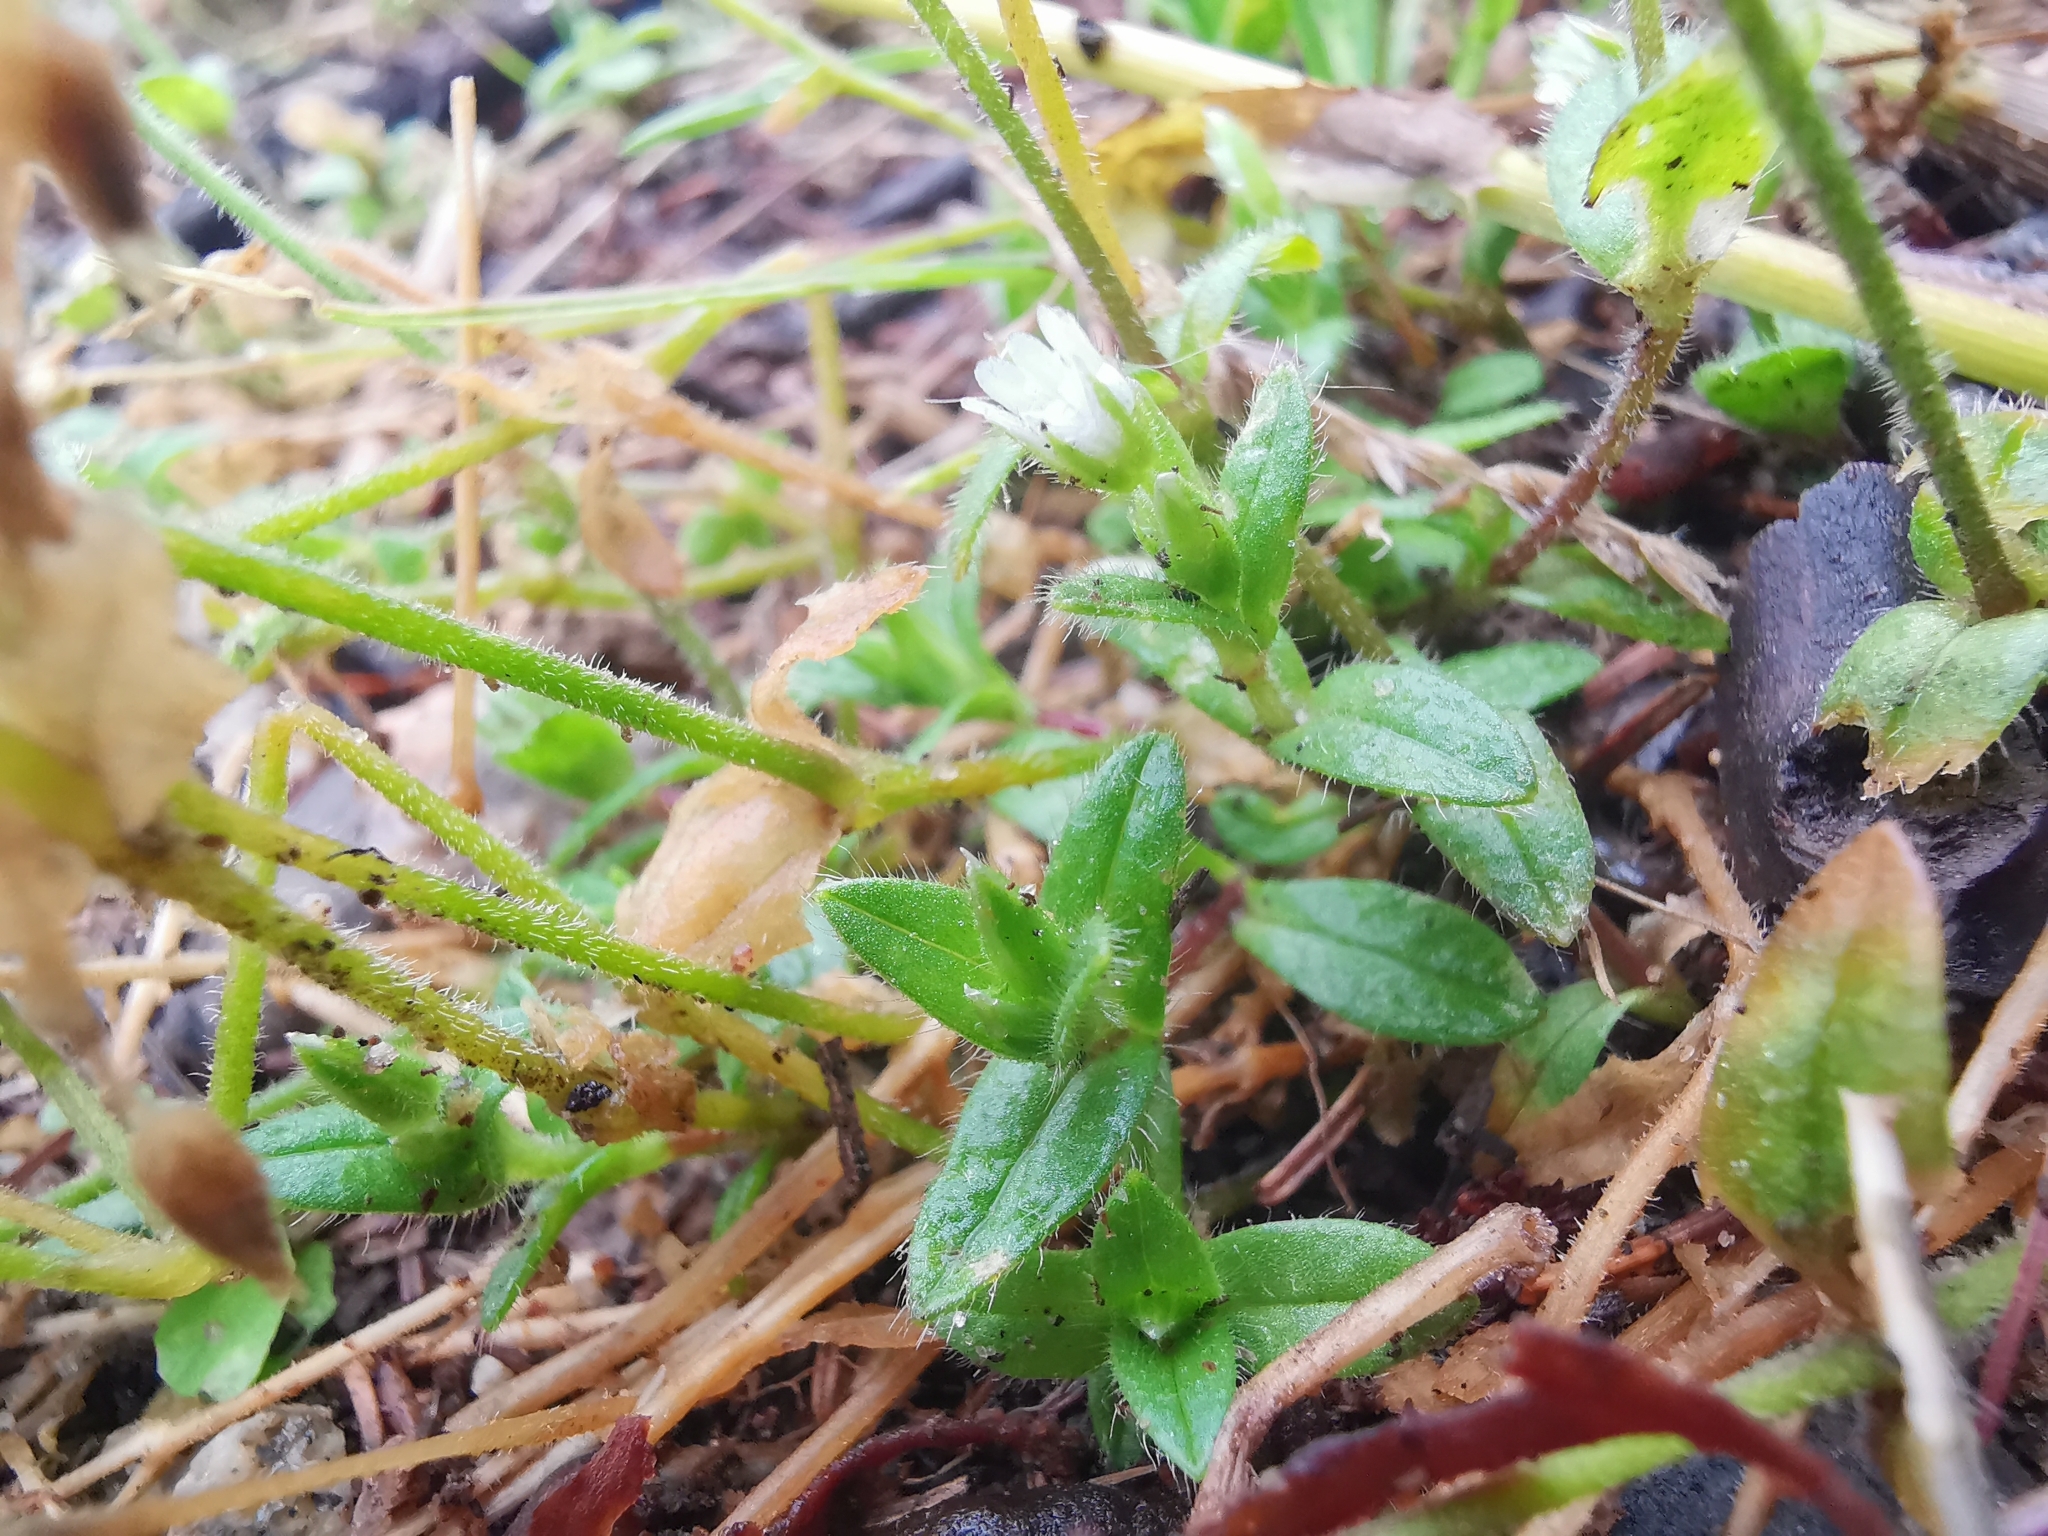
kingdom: Plantae
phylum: Tracheophyta
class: Magnoliopsida
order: Caryophyllales
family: Caryophyllaceae
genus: Cerastium
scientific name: Cerastium fontanum
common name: Common mouse-ear
